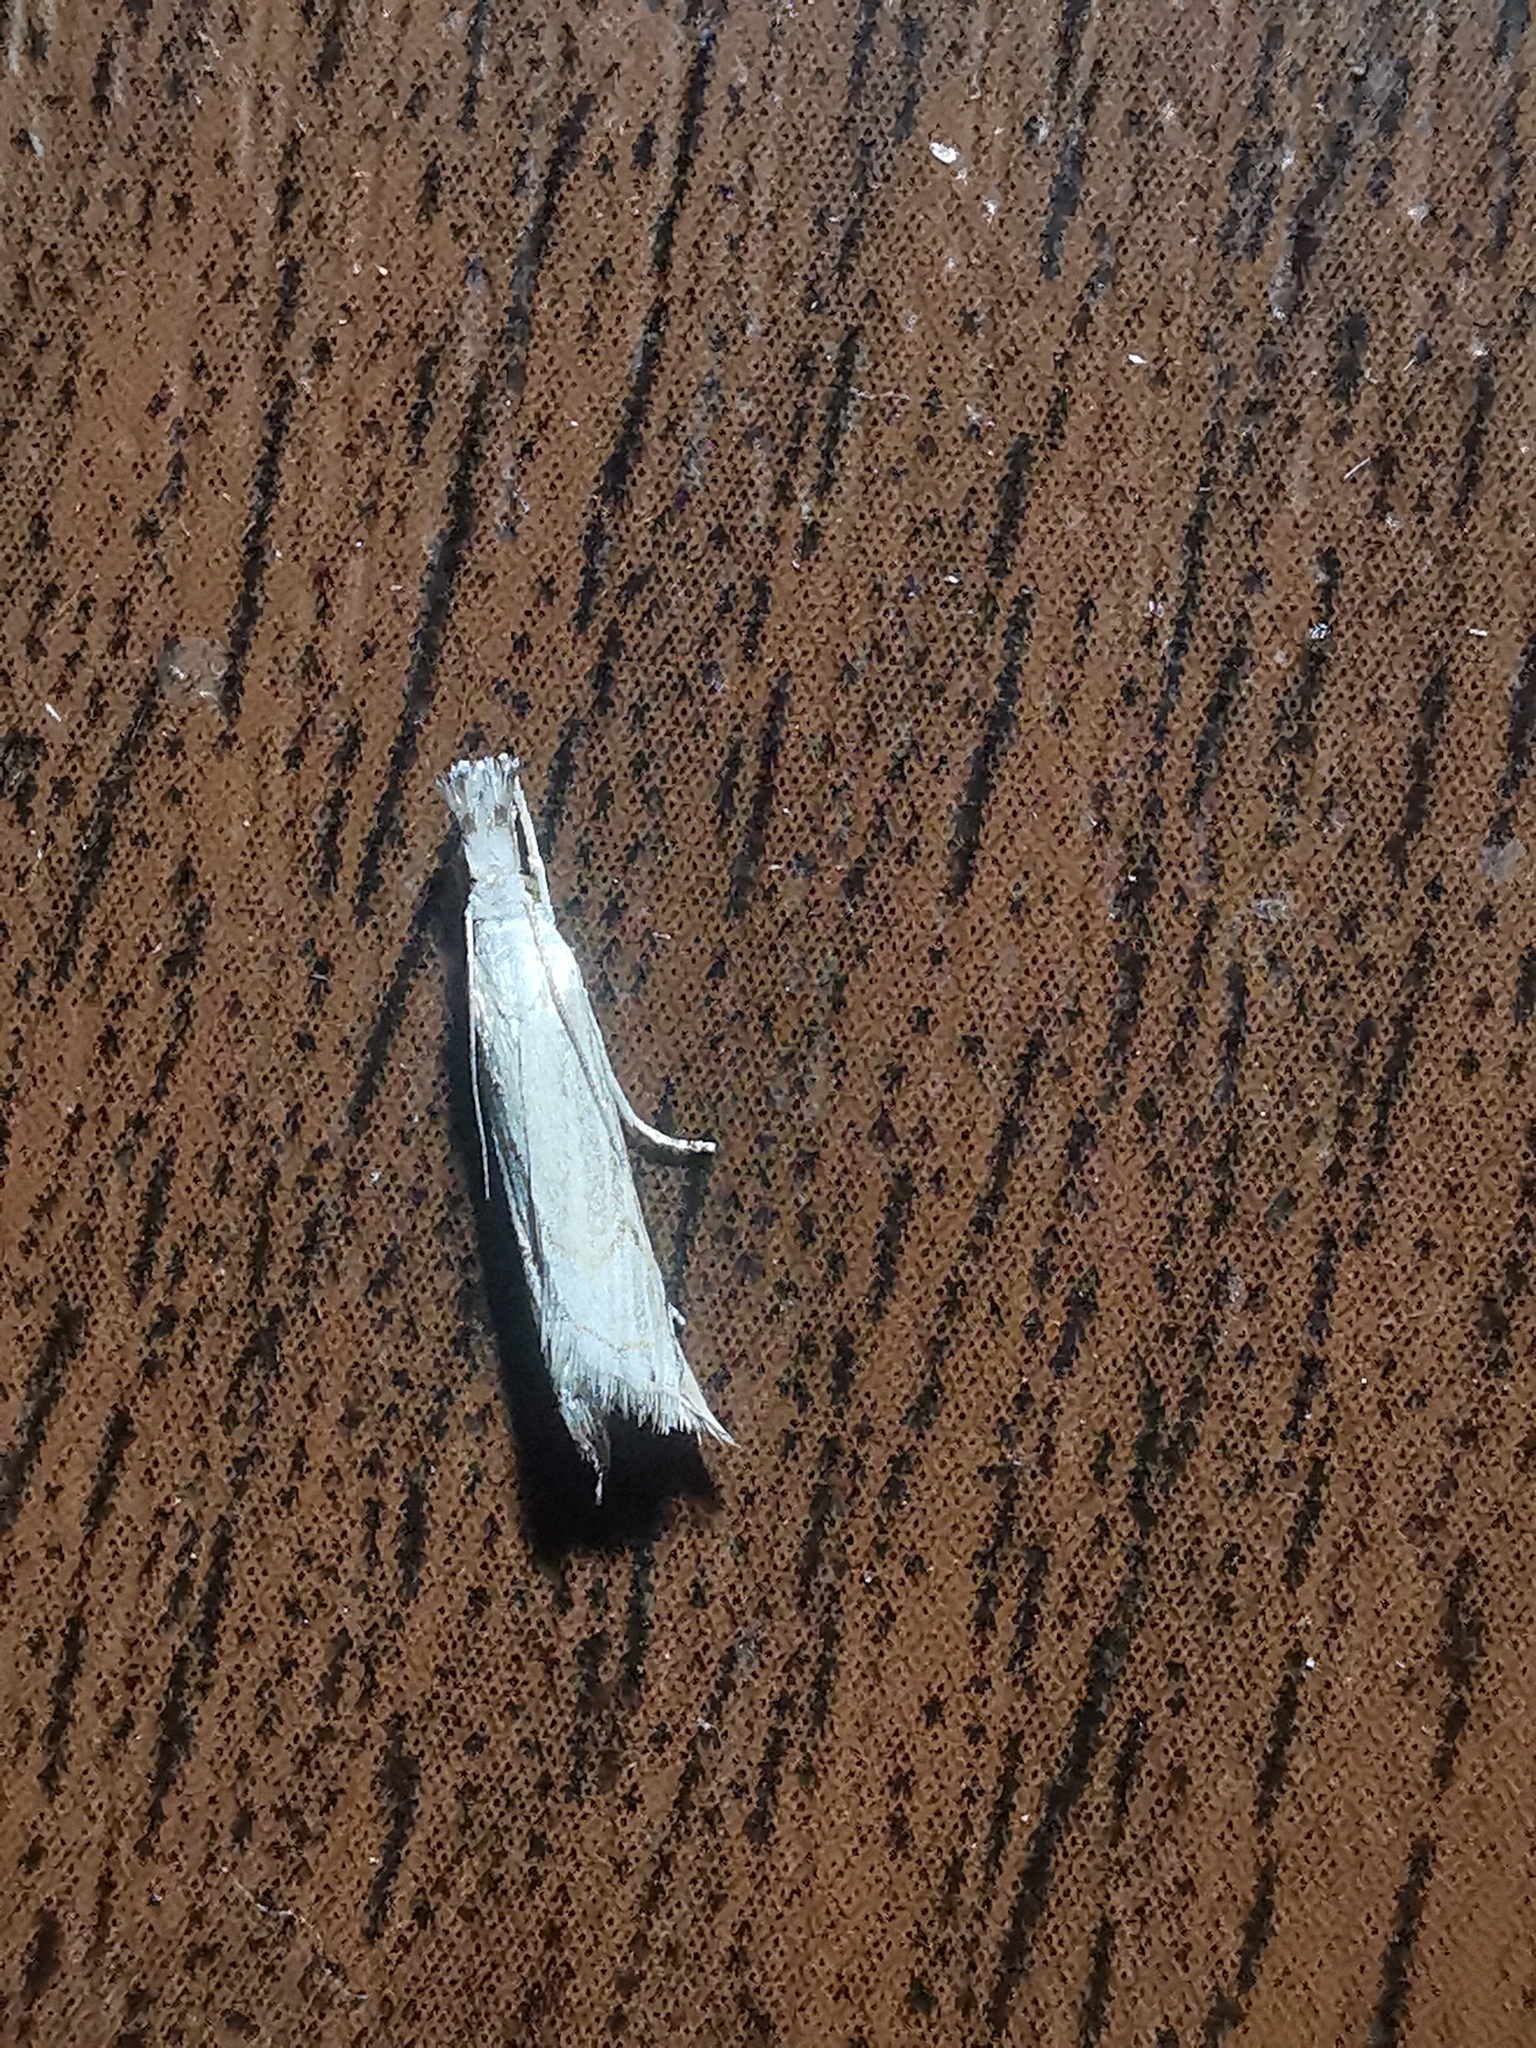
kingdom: Animalia
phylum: Arthropoda
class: Insecta
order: Lepidoptera
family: Crambidae
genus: Metacrambus
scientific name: Metacrambus carectellus
